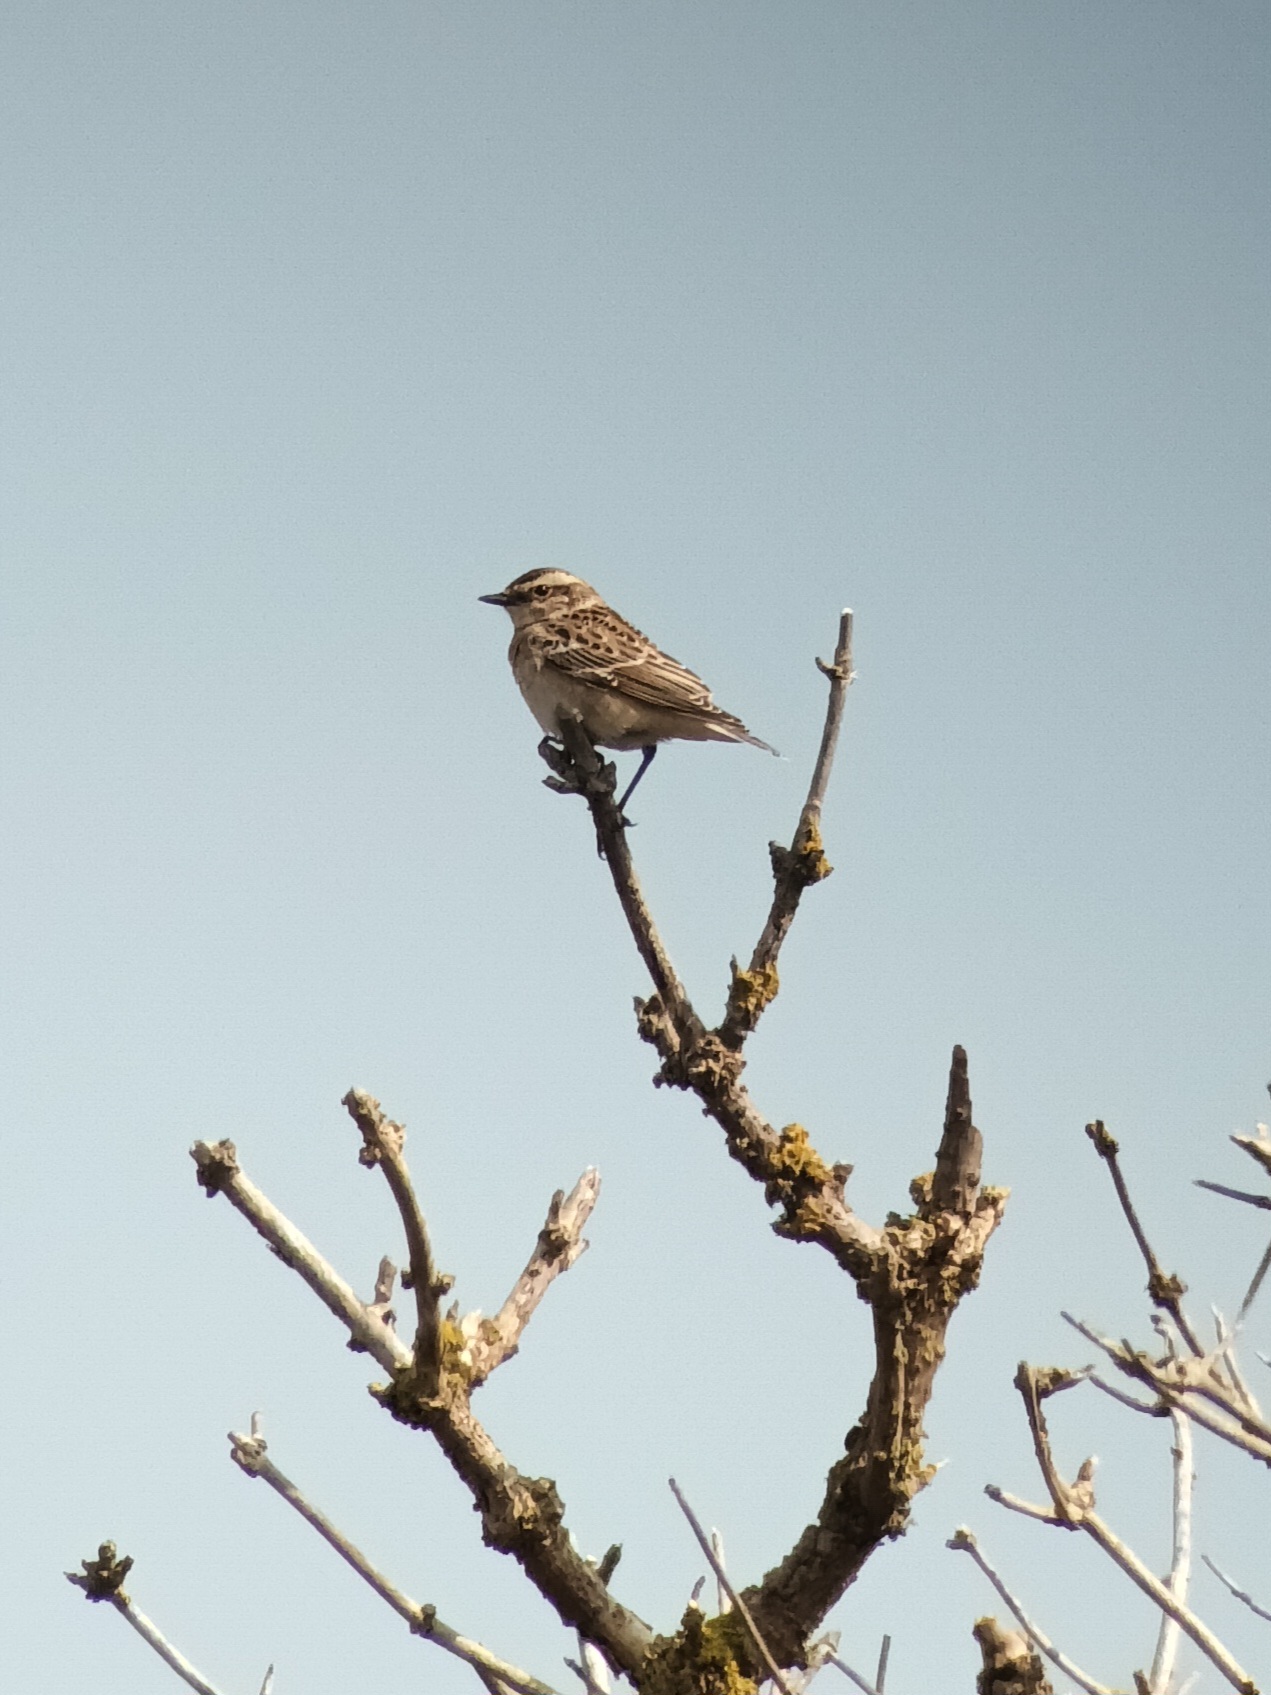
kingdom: Animalia
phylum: Chordata
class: Aves
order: Passeriformes
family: Muscicapidae
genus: Saxicola
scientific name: Saxicola rubetra
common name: Whinchat
